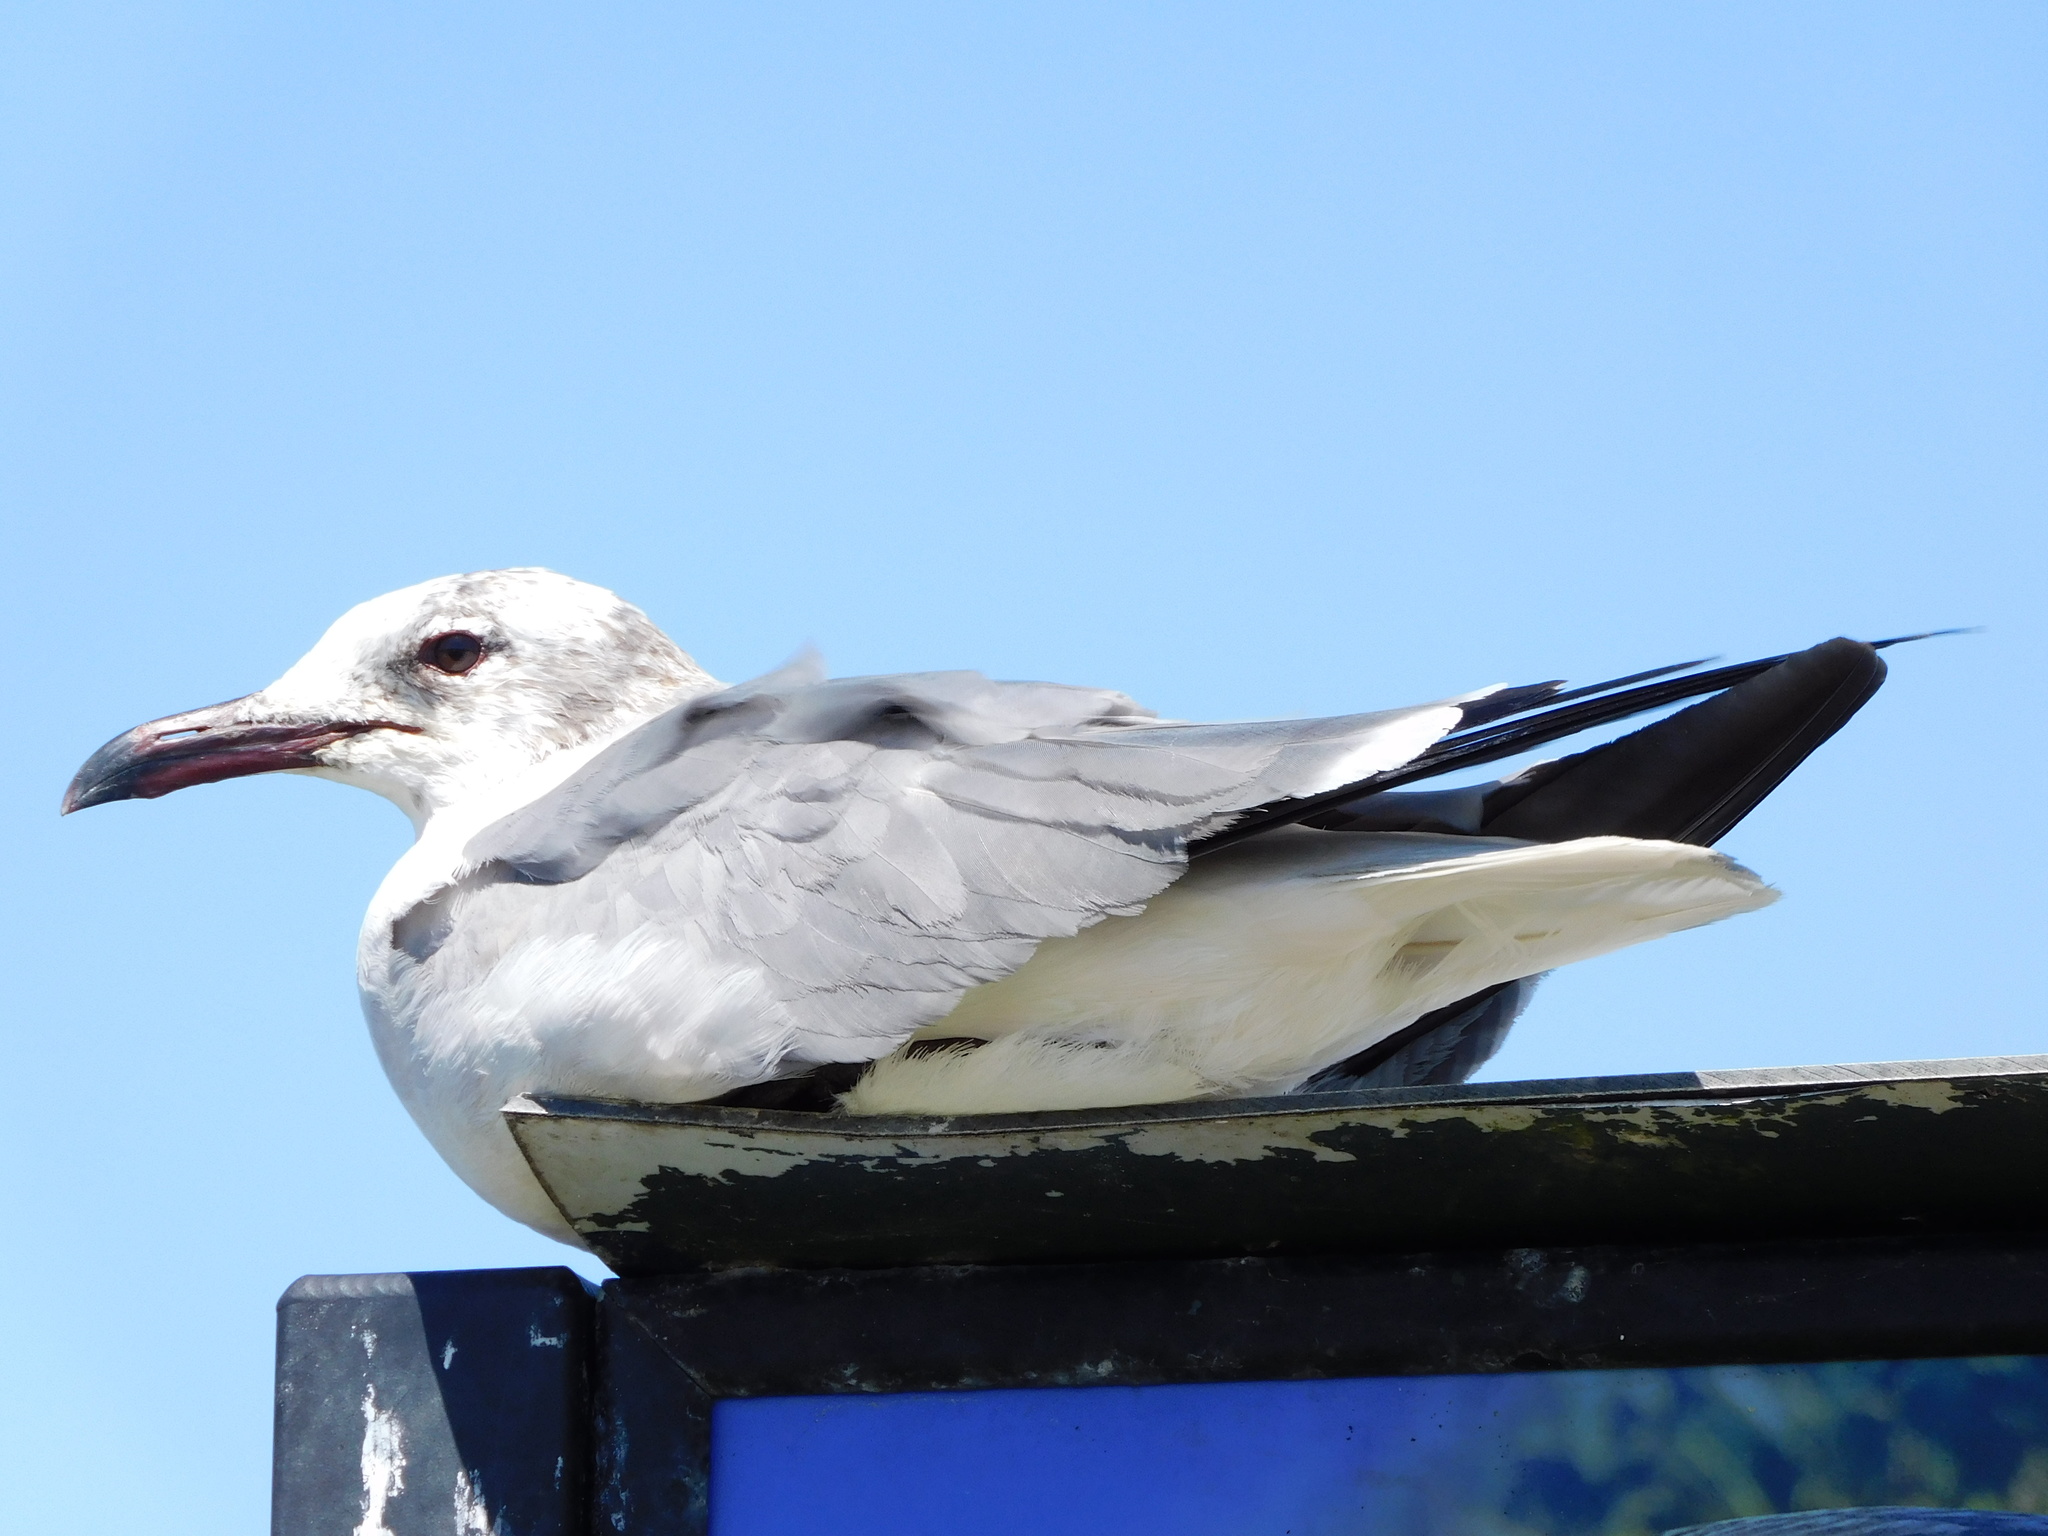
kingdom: Animalia
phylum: Chordata
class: Aves
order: Charadriiformes
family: Laridae
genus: Leucophaeus
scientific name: Leucophaeus atricilla
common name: Laughing gull
